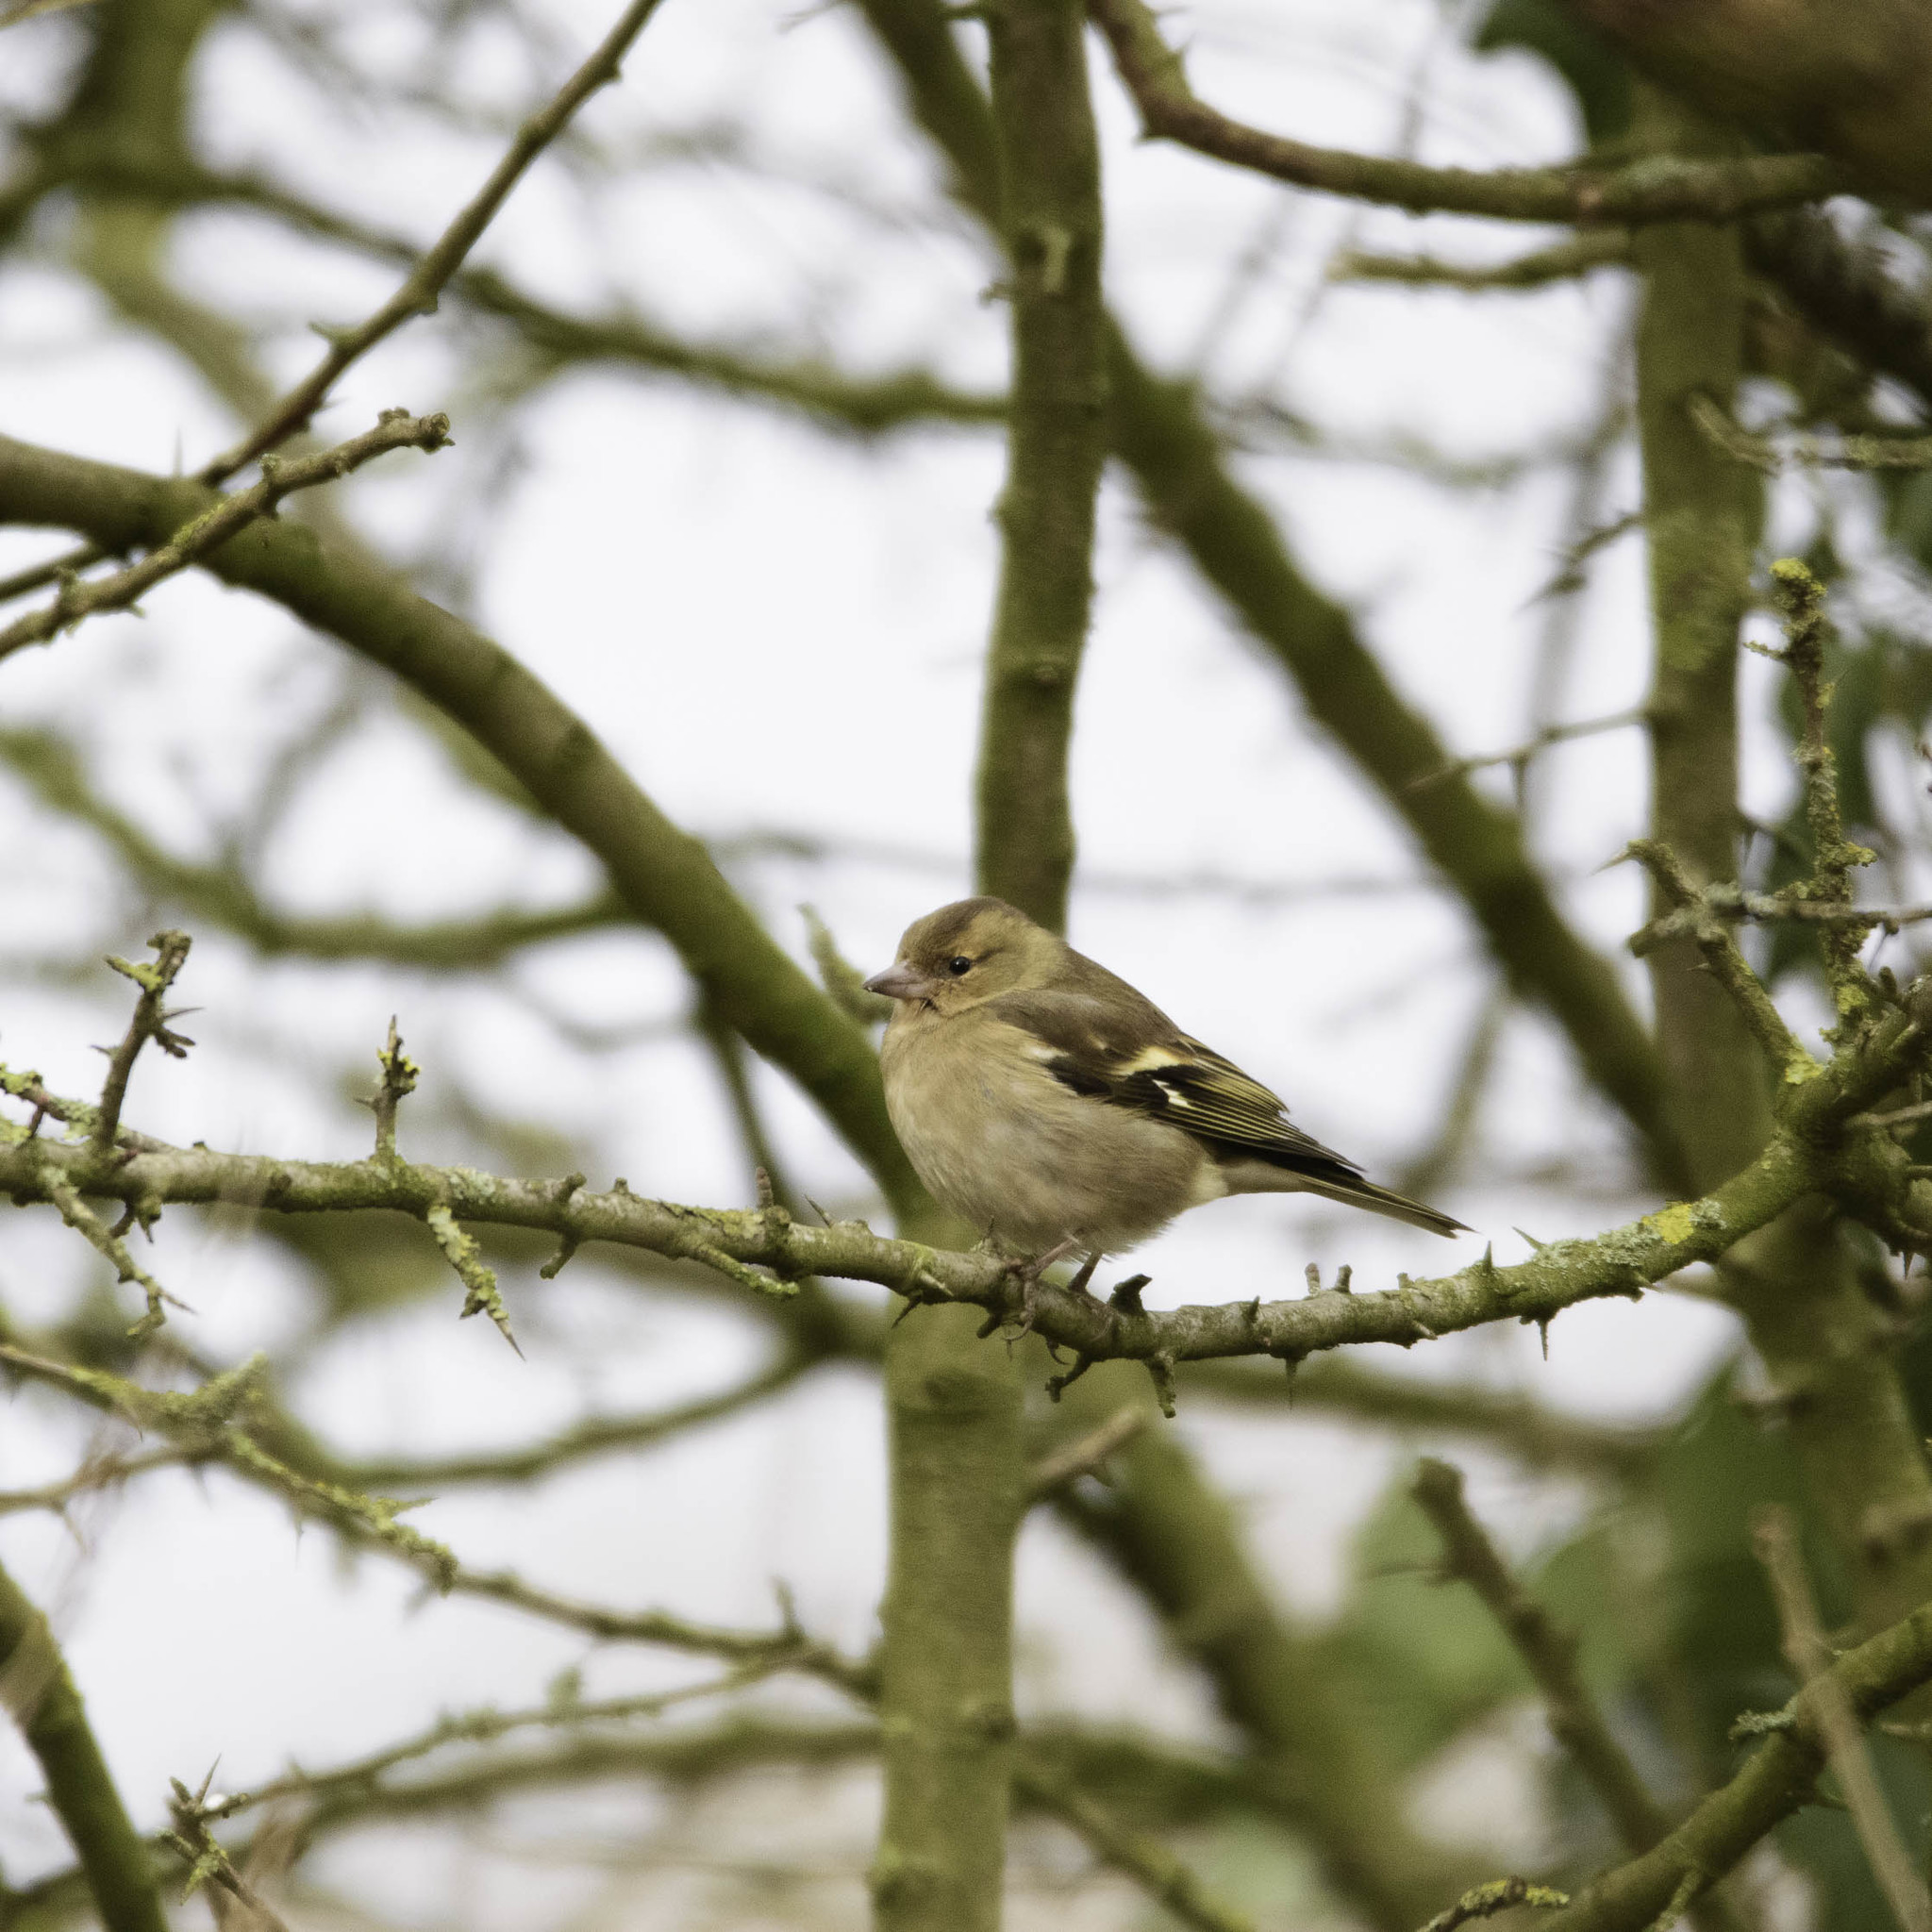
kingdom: Animalia
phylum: Chordata
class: Aves
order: Passeriformes
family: Fringillidae
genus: Fringilla
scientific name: Fringilla coelebs
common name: Common chaffinch
